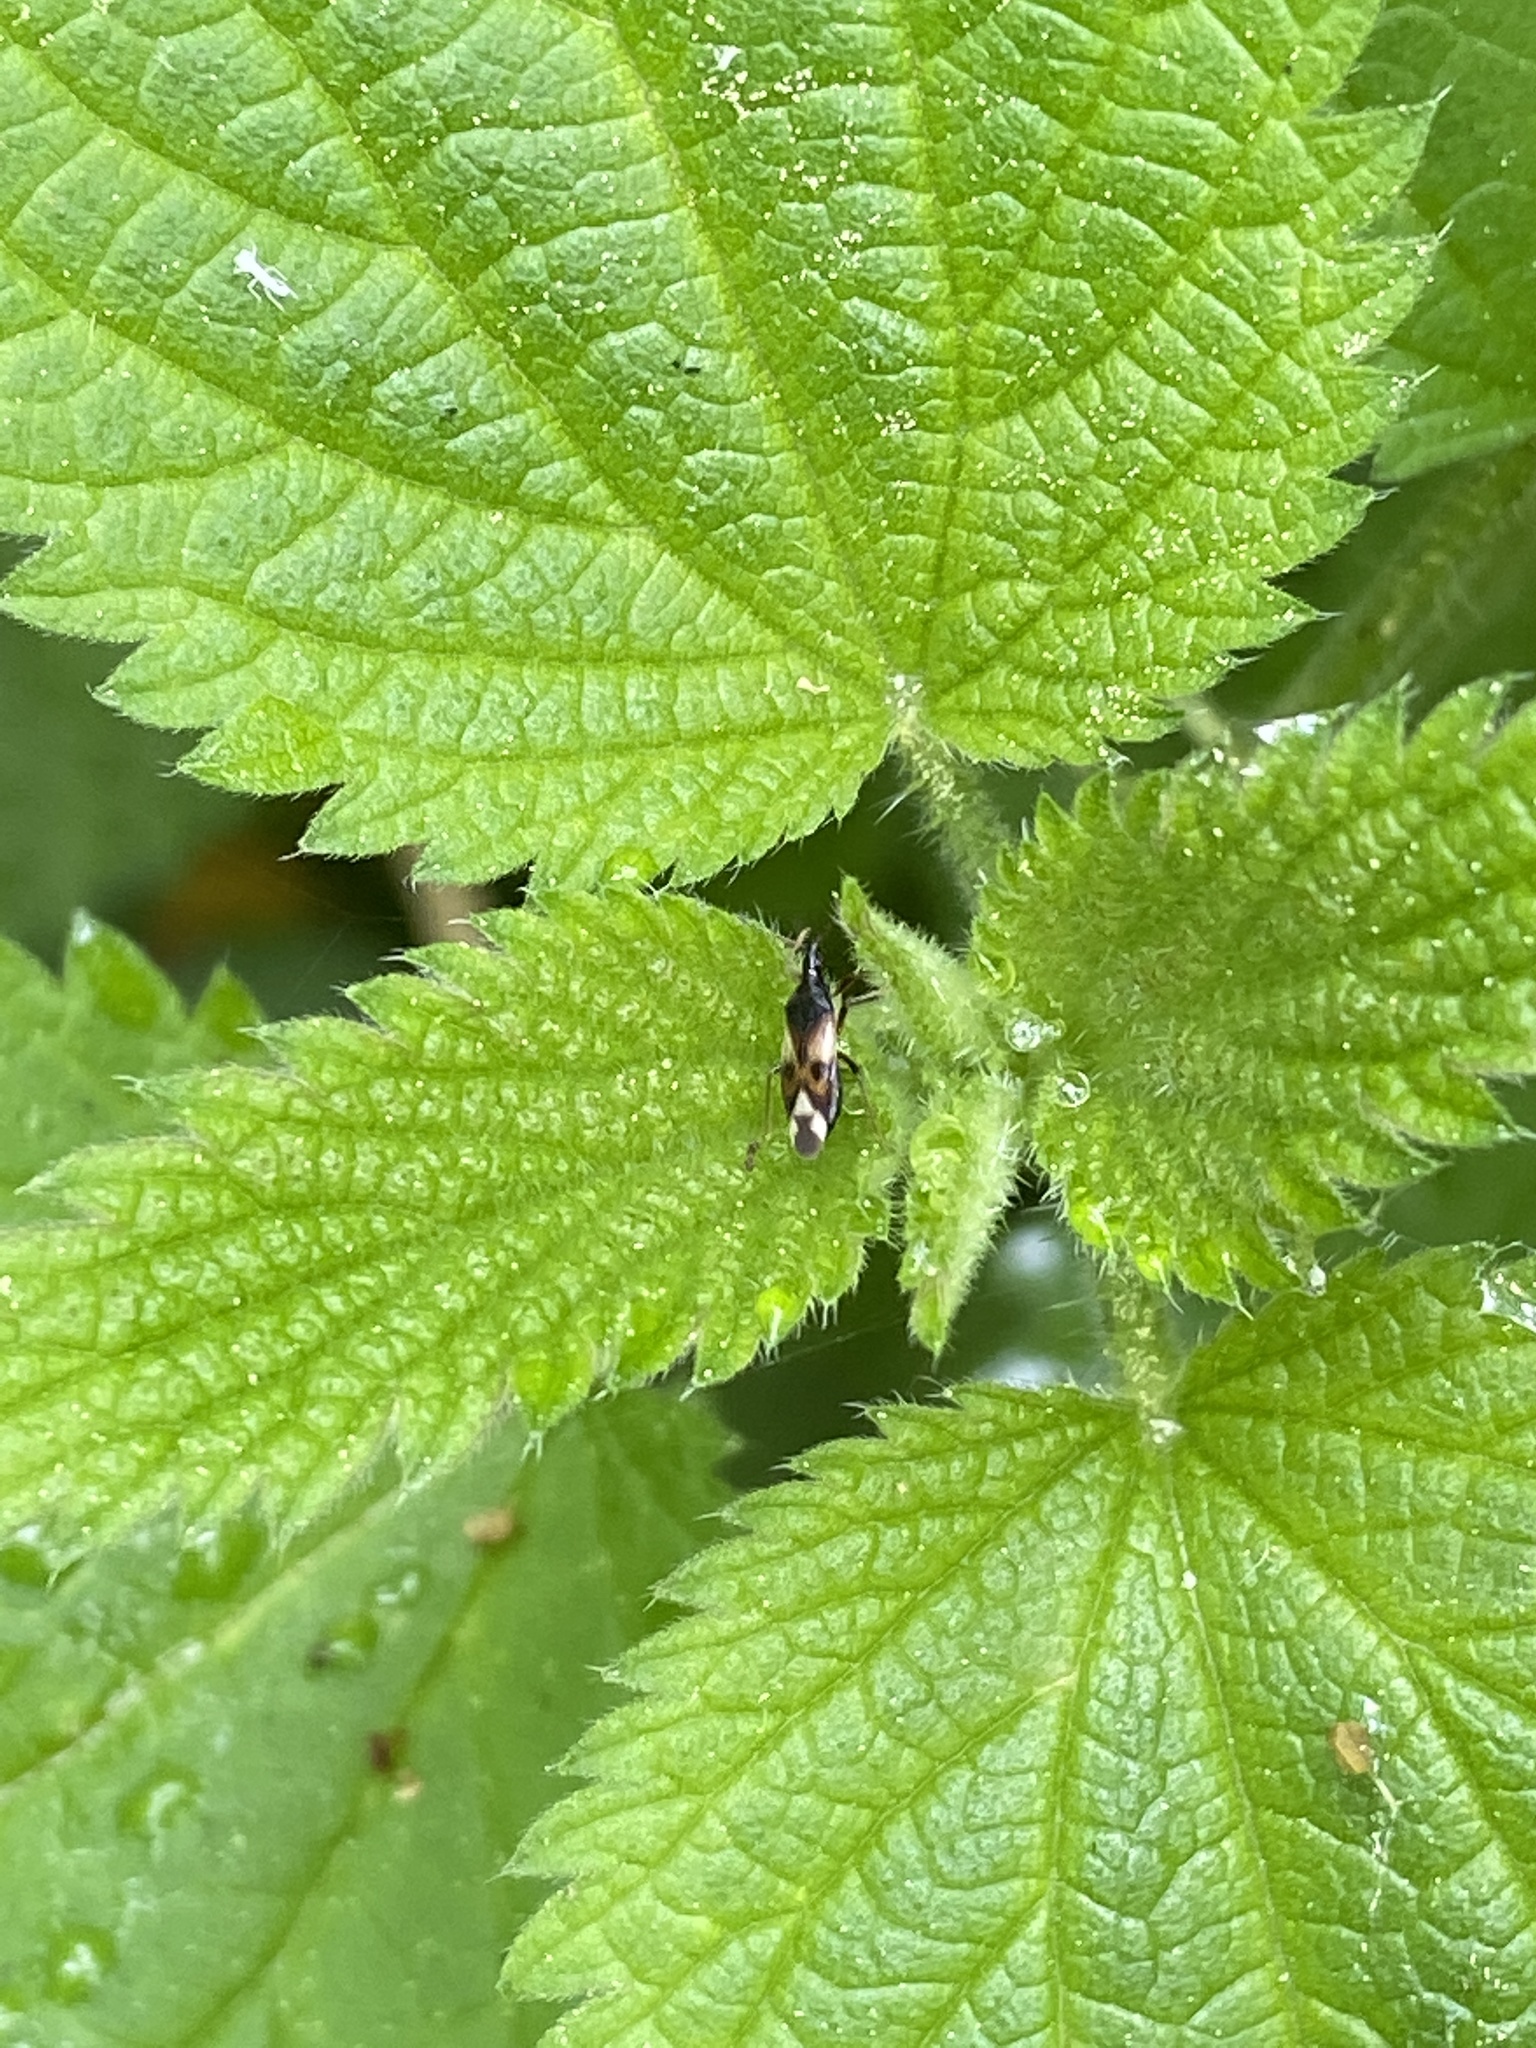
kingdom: Animalia
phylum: Arthropoda
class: Insecta
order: Hemiptera
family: Anthocoridae
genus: Anthocoris
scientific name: Anthocoris nemorum
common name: Minute pirate bug
